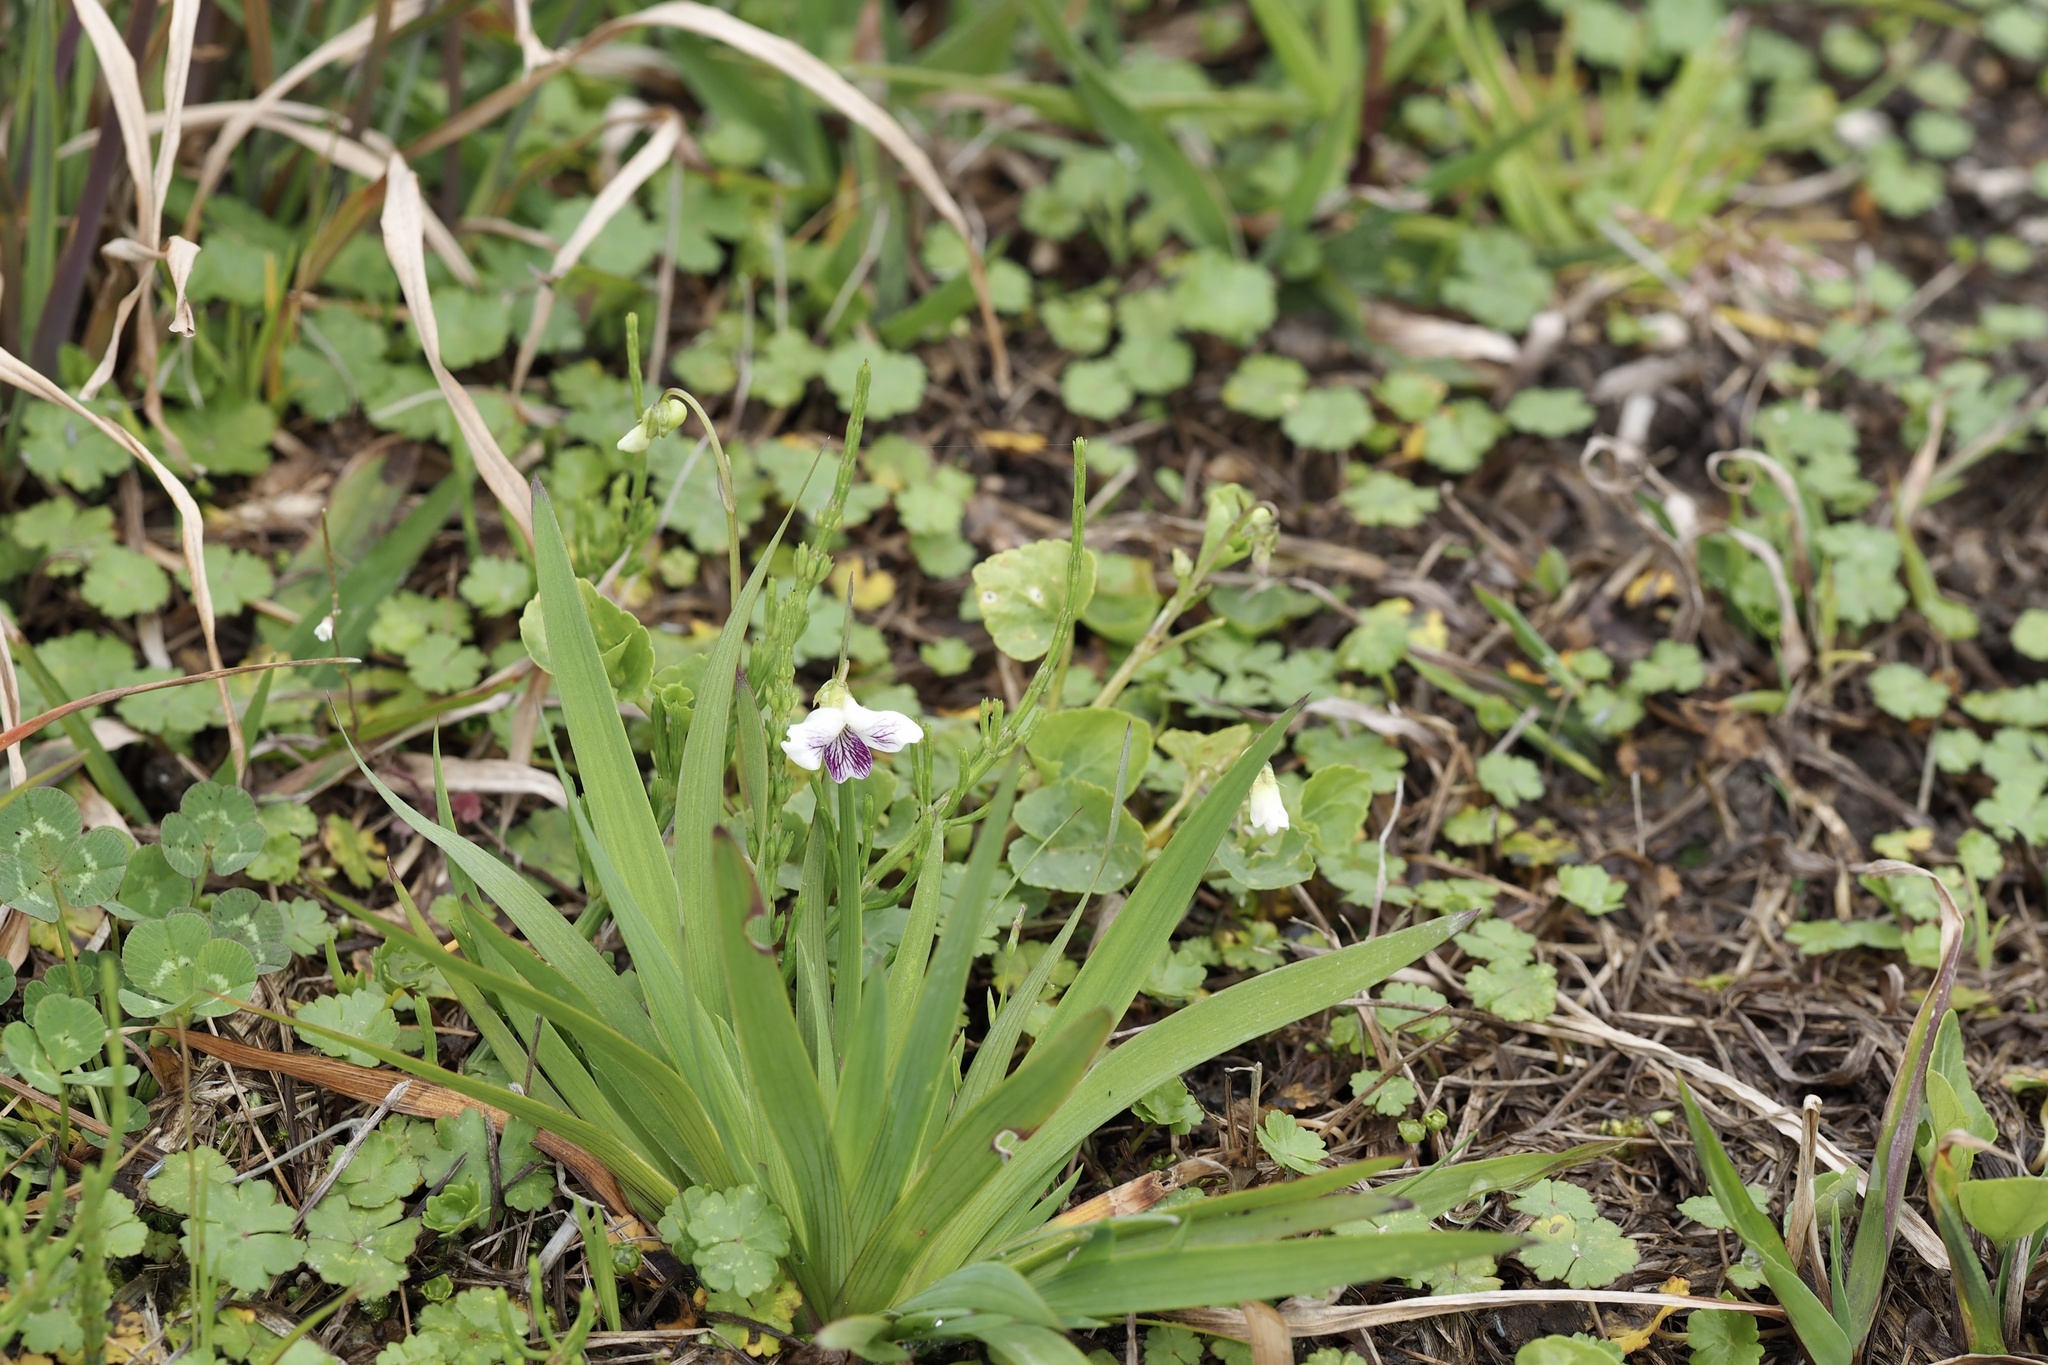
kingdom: Plantae
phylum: Tracheophyta
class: Magnoliopsida
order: Malpighiales
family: Violaceae
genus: Viola
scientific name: Viola
